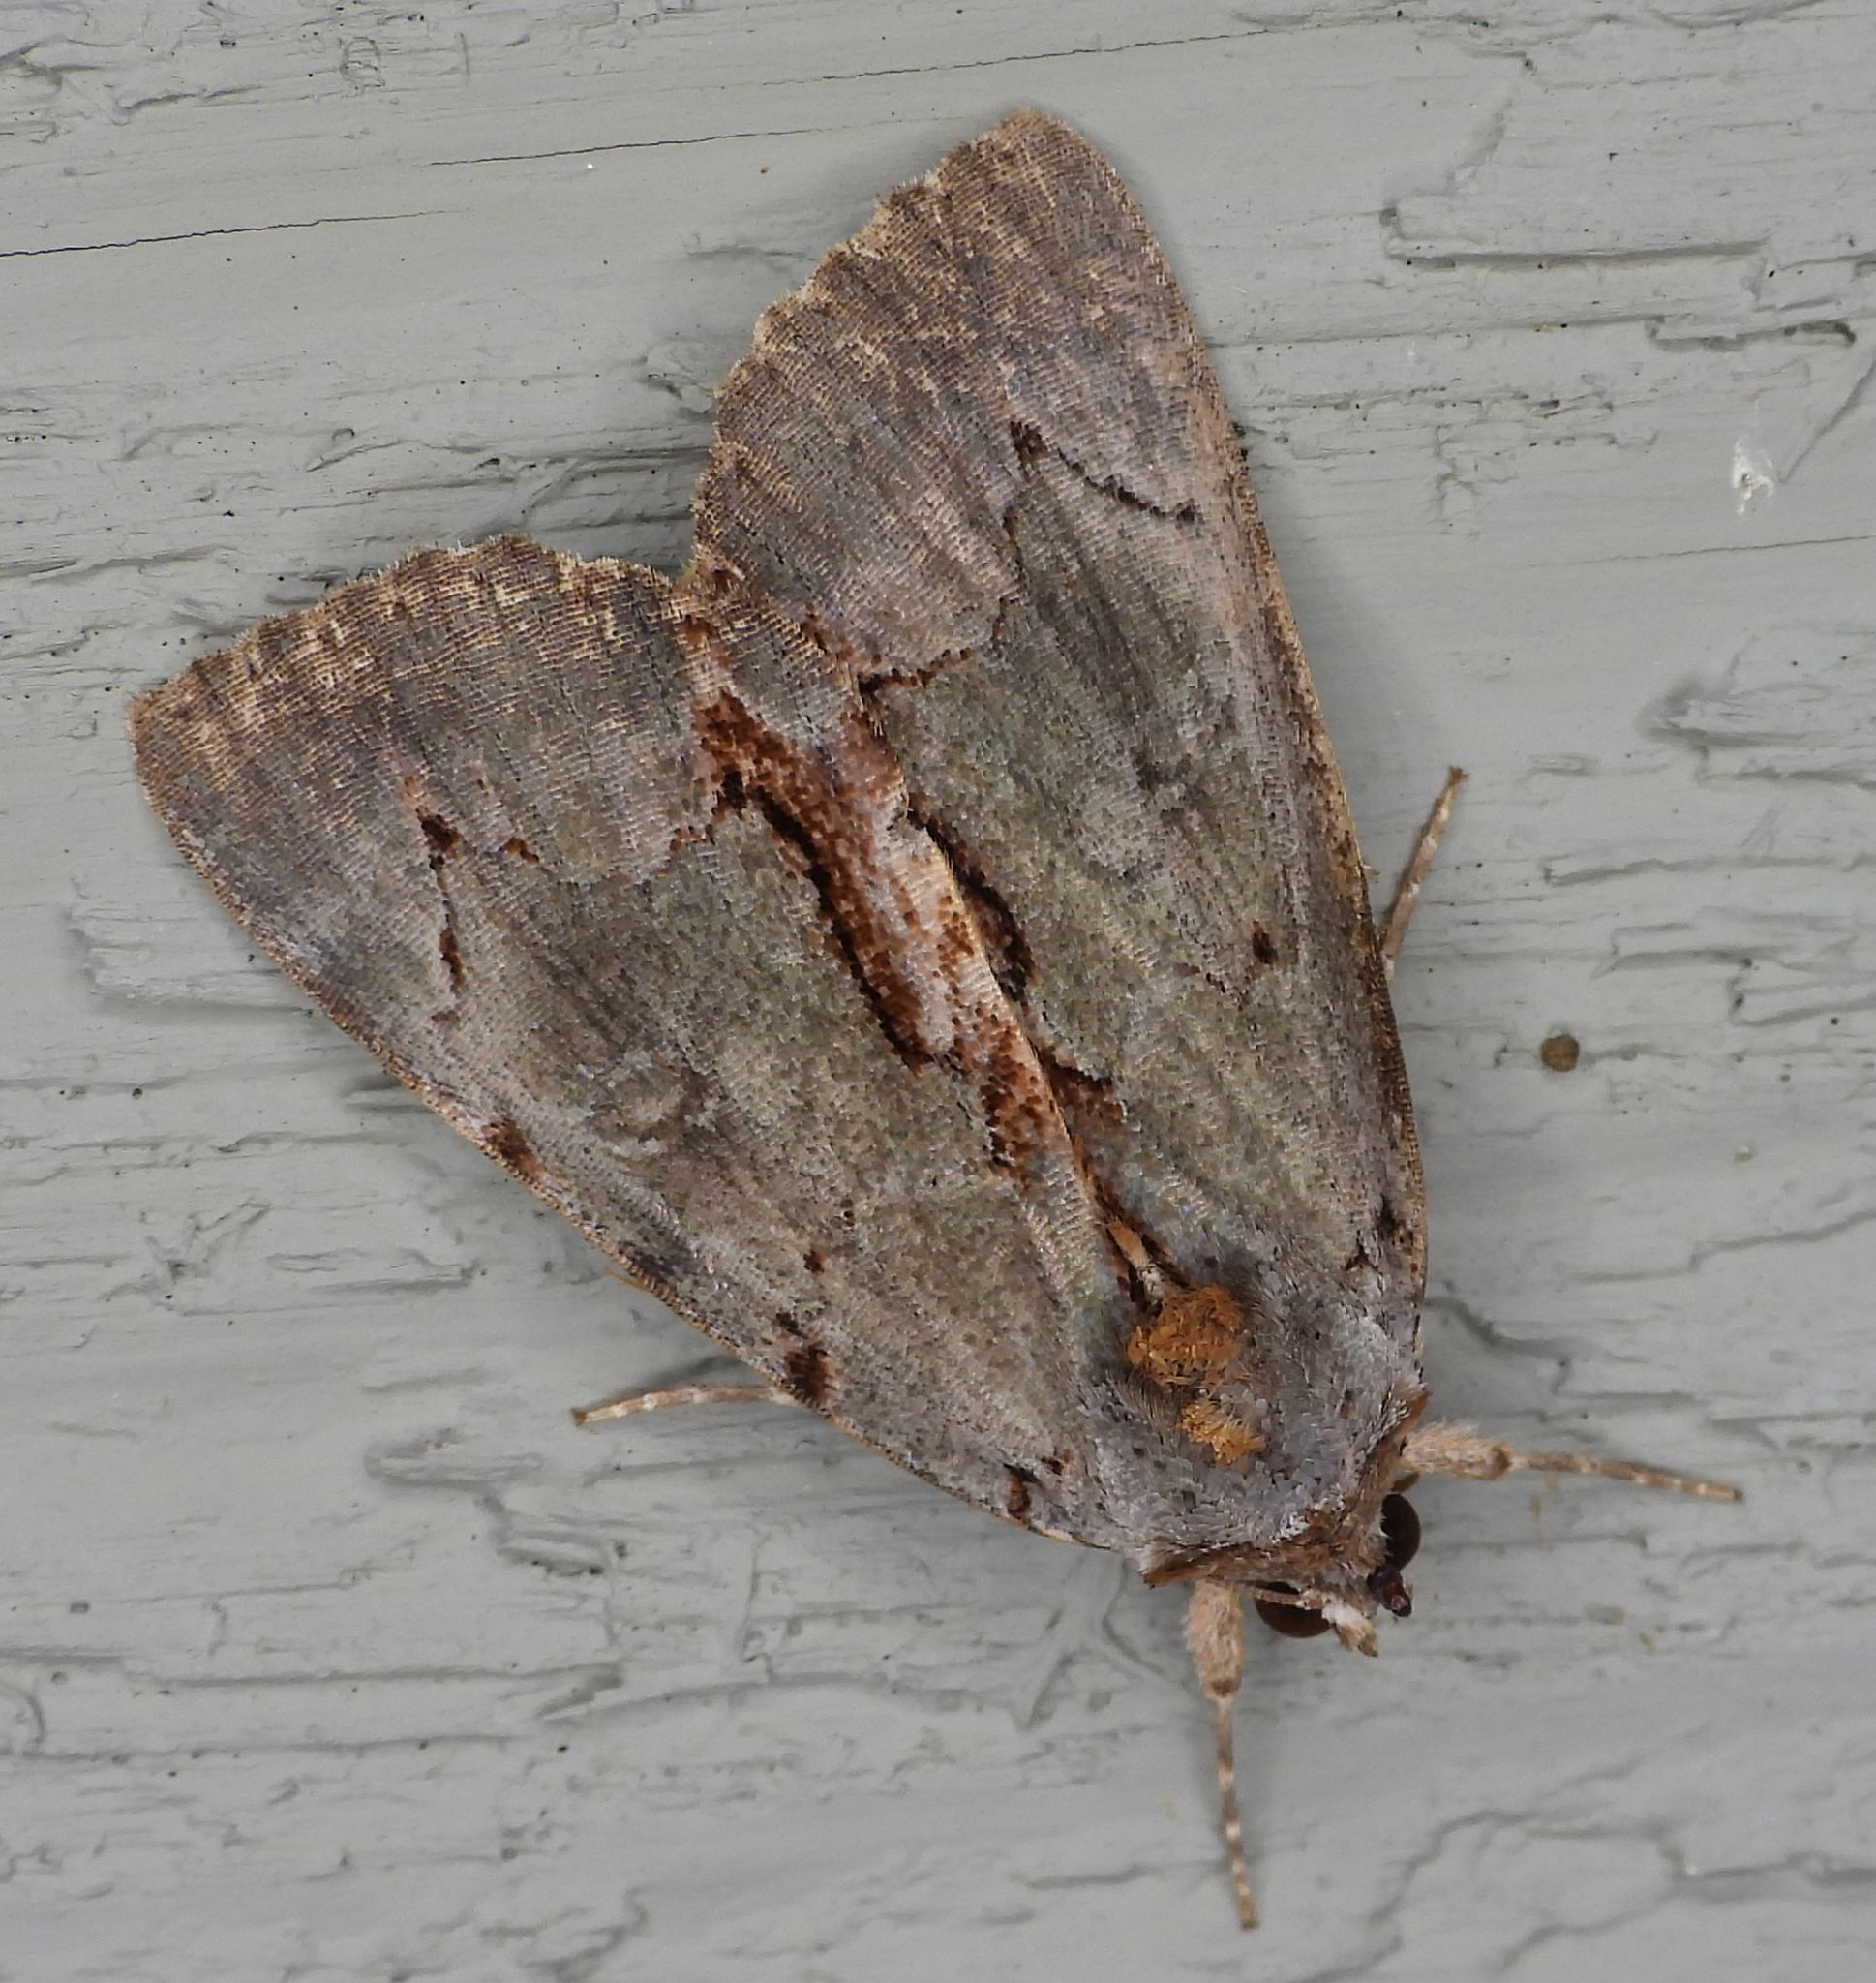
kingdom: Animalia
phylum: Arthropoda
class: Insecta
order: Lepidoptera
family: Erebidae
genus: Catocala
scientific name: Catocala grynea
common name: Woody underwing
